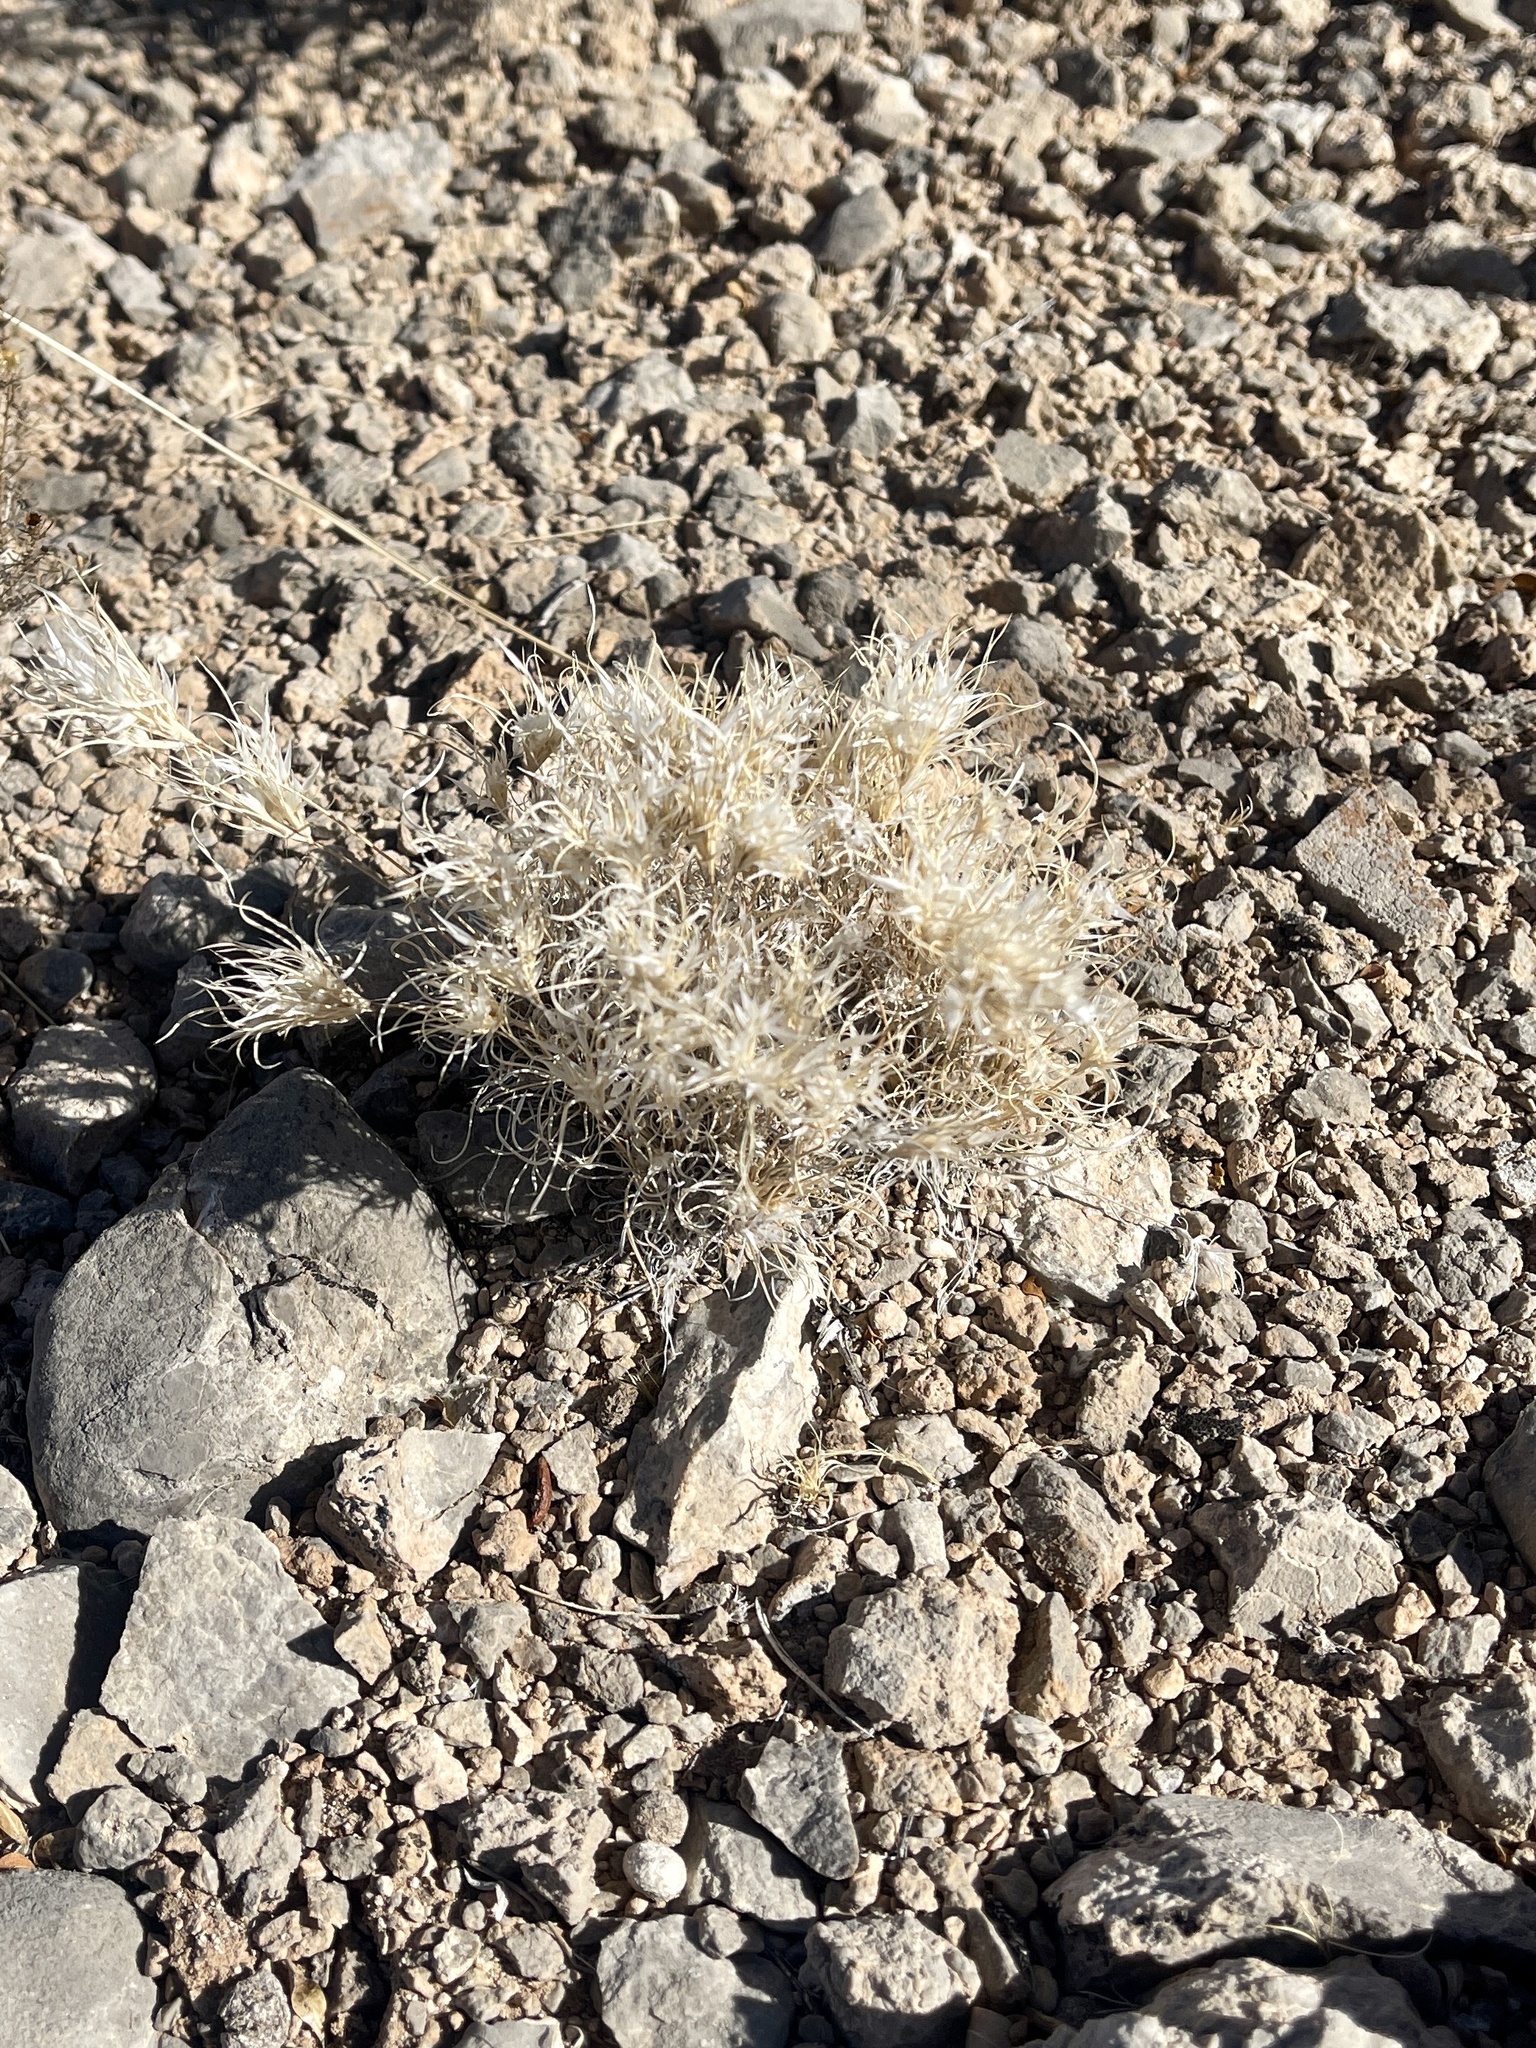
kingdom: Plantae
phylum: Tracheophyta
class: Liliopsida
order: Poales
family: Poaceae
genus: Dasyochloa
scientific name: Dasyochloa pulchella
